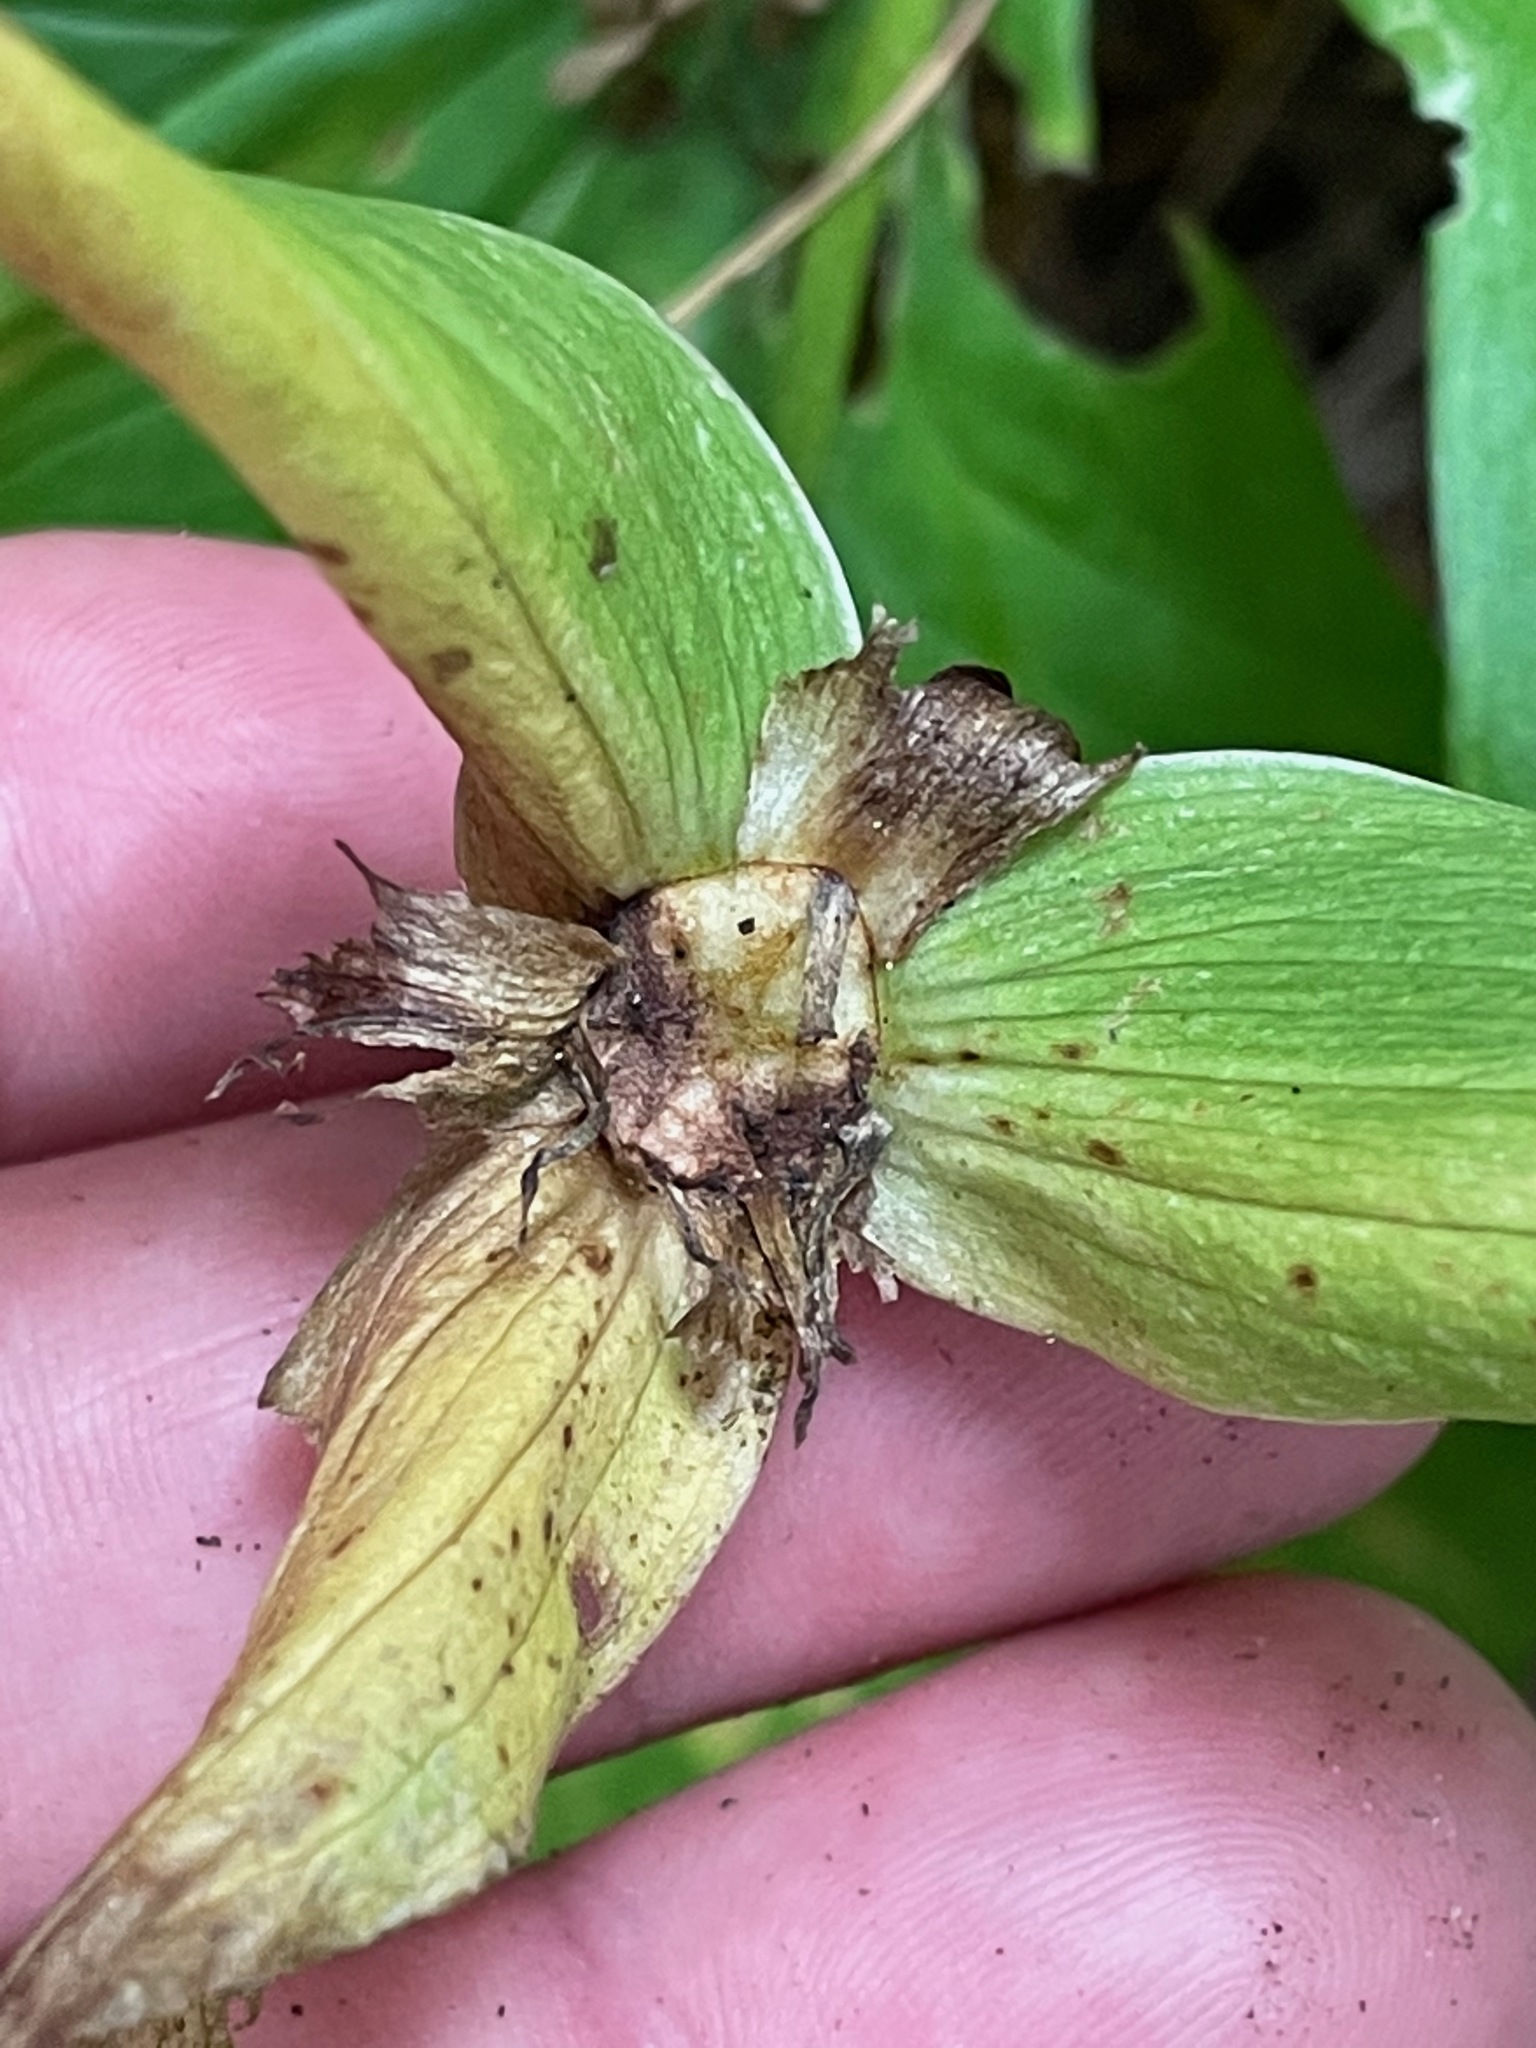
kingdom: Plantae
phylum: Tracheophyta
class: Liliopsida
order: Liliales
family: Melanthiaceae
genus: Trillium
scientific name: Trillium grandiflorum
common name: Great white trillium
